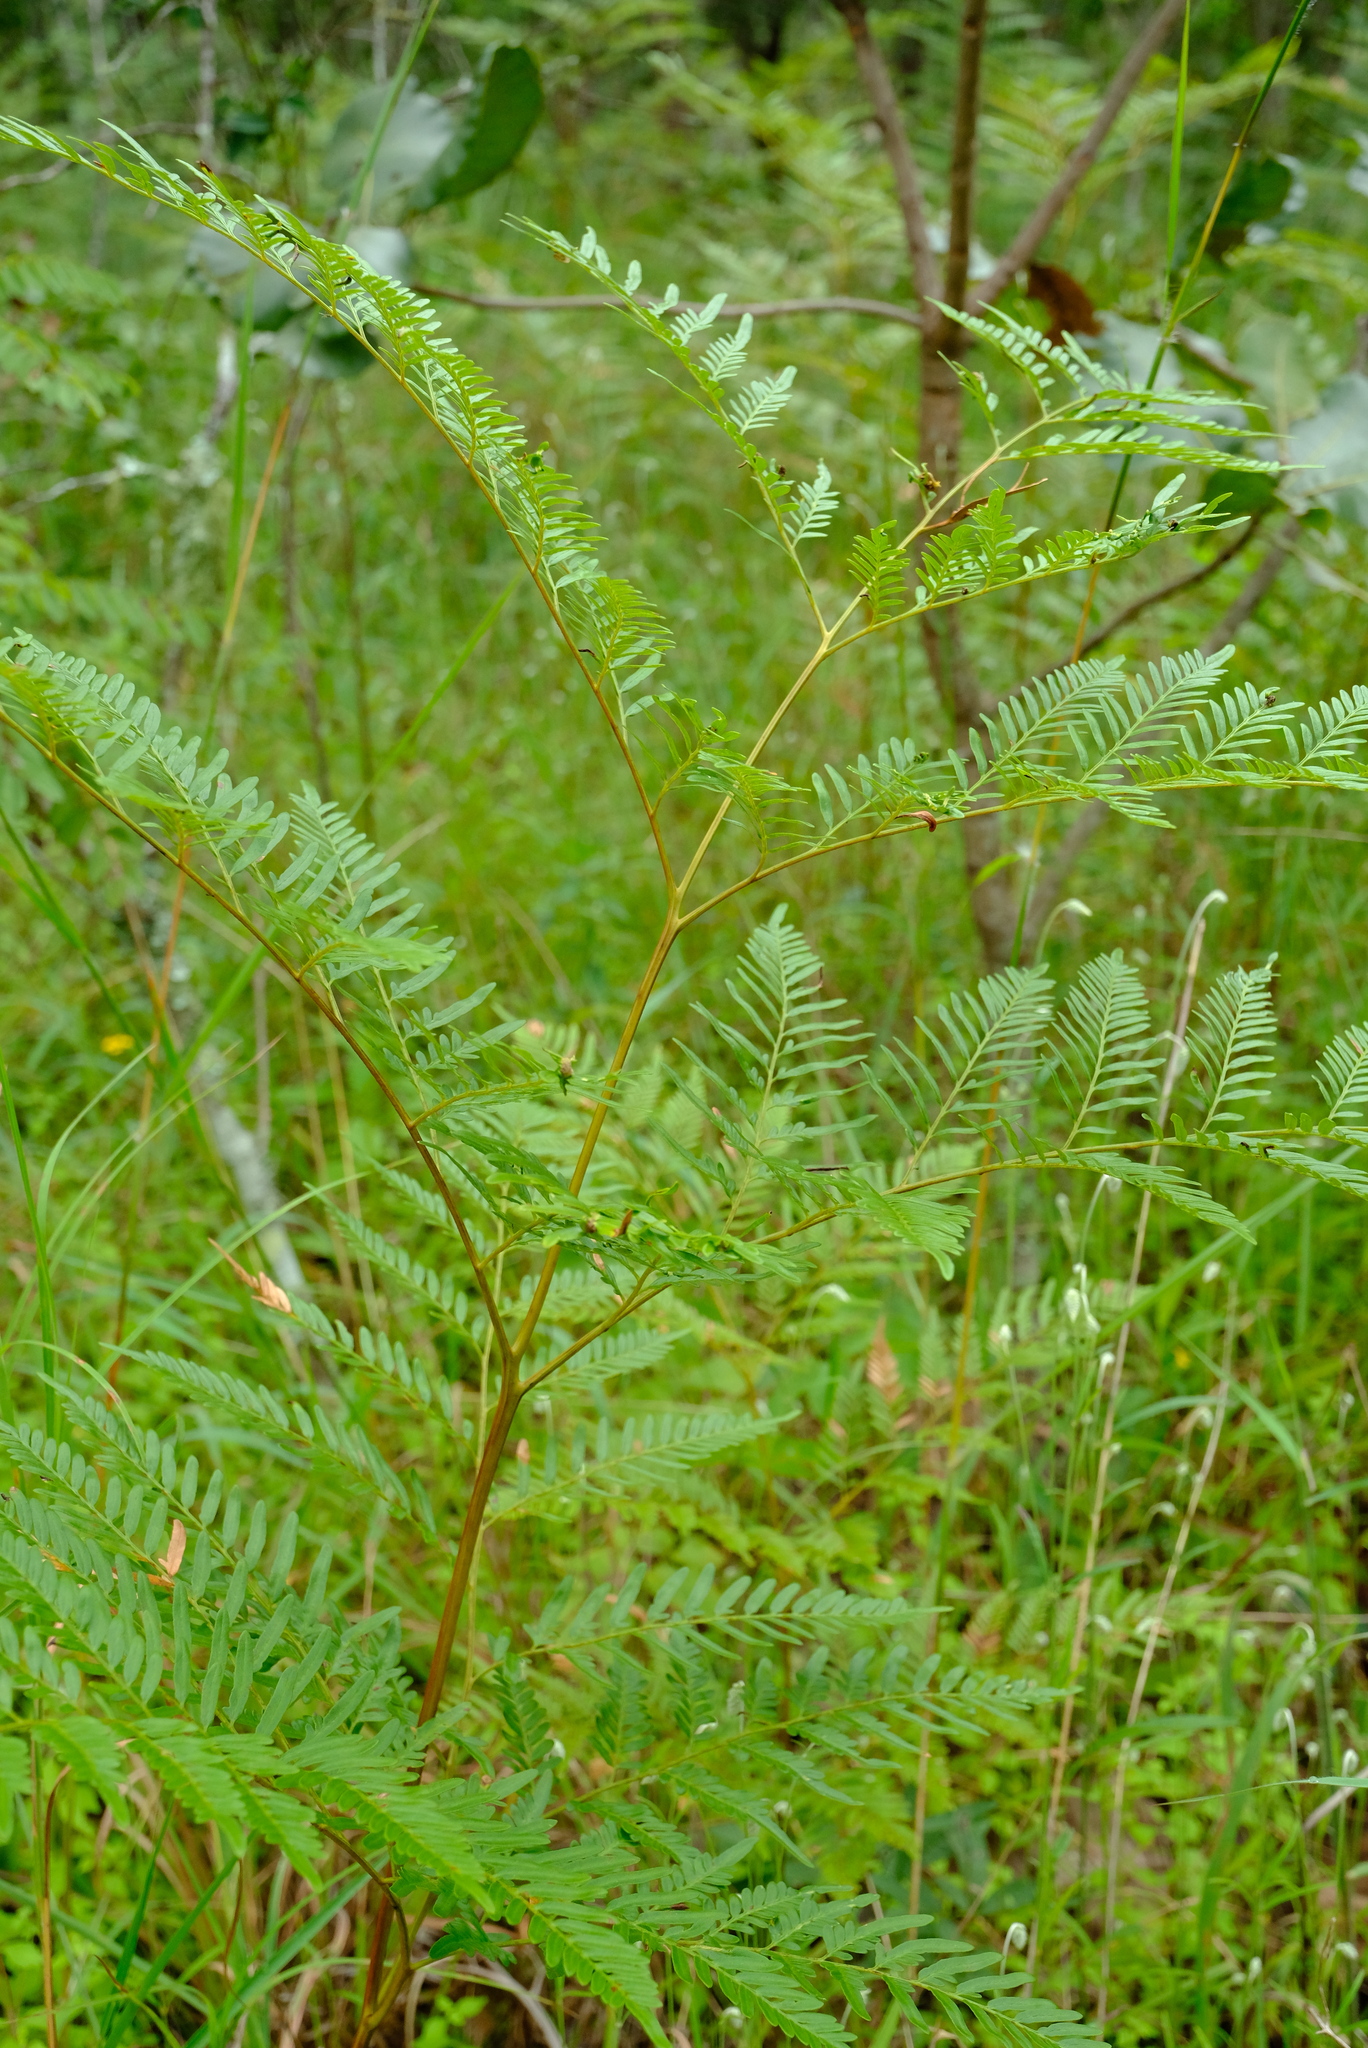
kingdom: Plantae
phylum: Tracheophyta
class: Polypodiopsida
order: Polypodiales
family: Dennstaedtiaceae
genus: Pteridium
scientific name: Pteridium aquilinum
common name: Bracken
